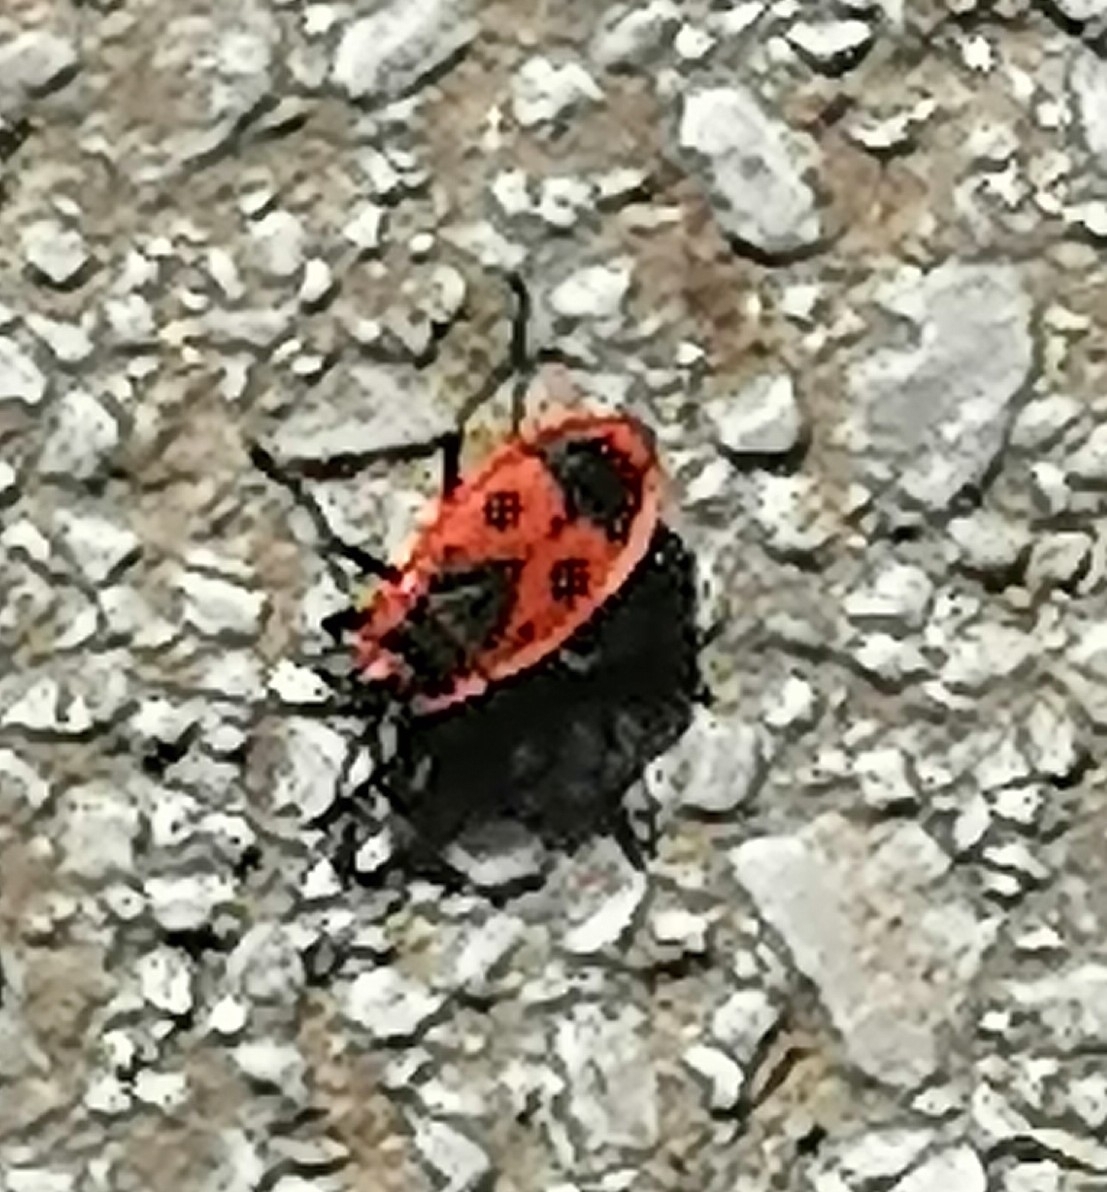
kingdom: Animalia
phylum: Arthropoda
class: Insecta
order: Hemiptera
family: Pyrrhocoridae
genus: Pyrrhocoris
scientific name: Pyrrhocoris apterus
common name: Firebug
